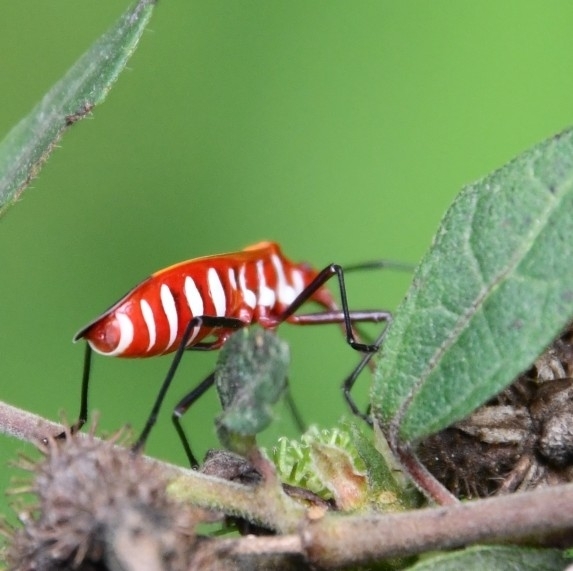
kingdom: Animalia
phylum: Arthropoda
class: Insecta
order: Hemiptera
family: Pyrrhocoridae
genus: Dysdercus
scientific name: Dysdercus cingulatus
